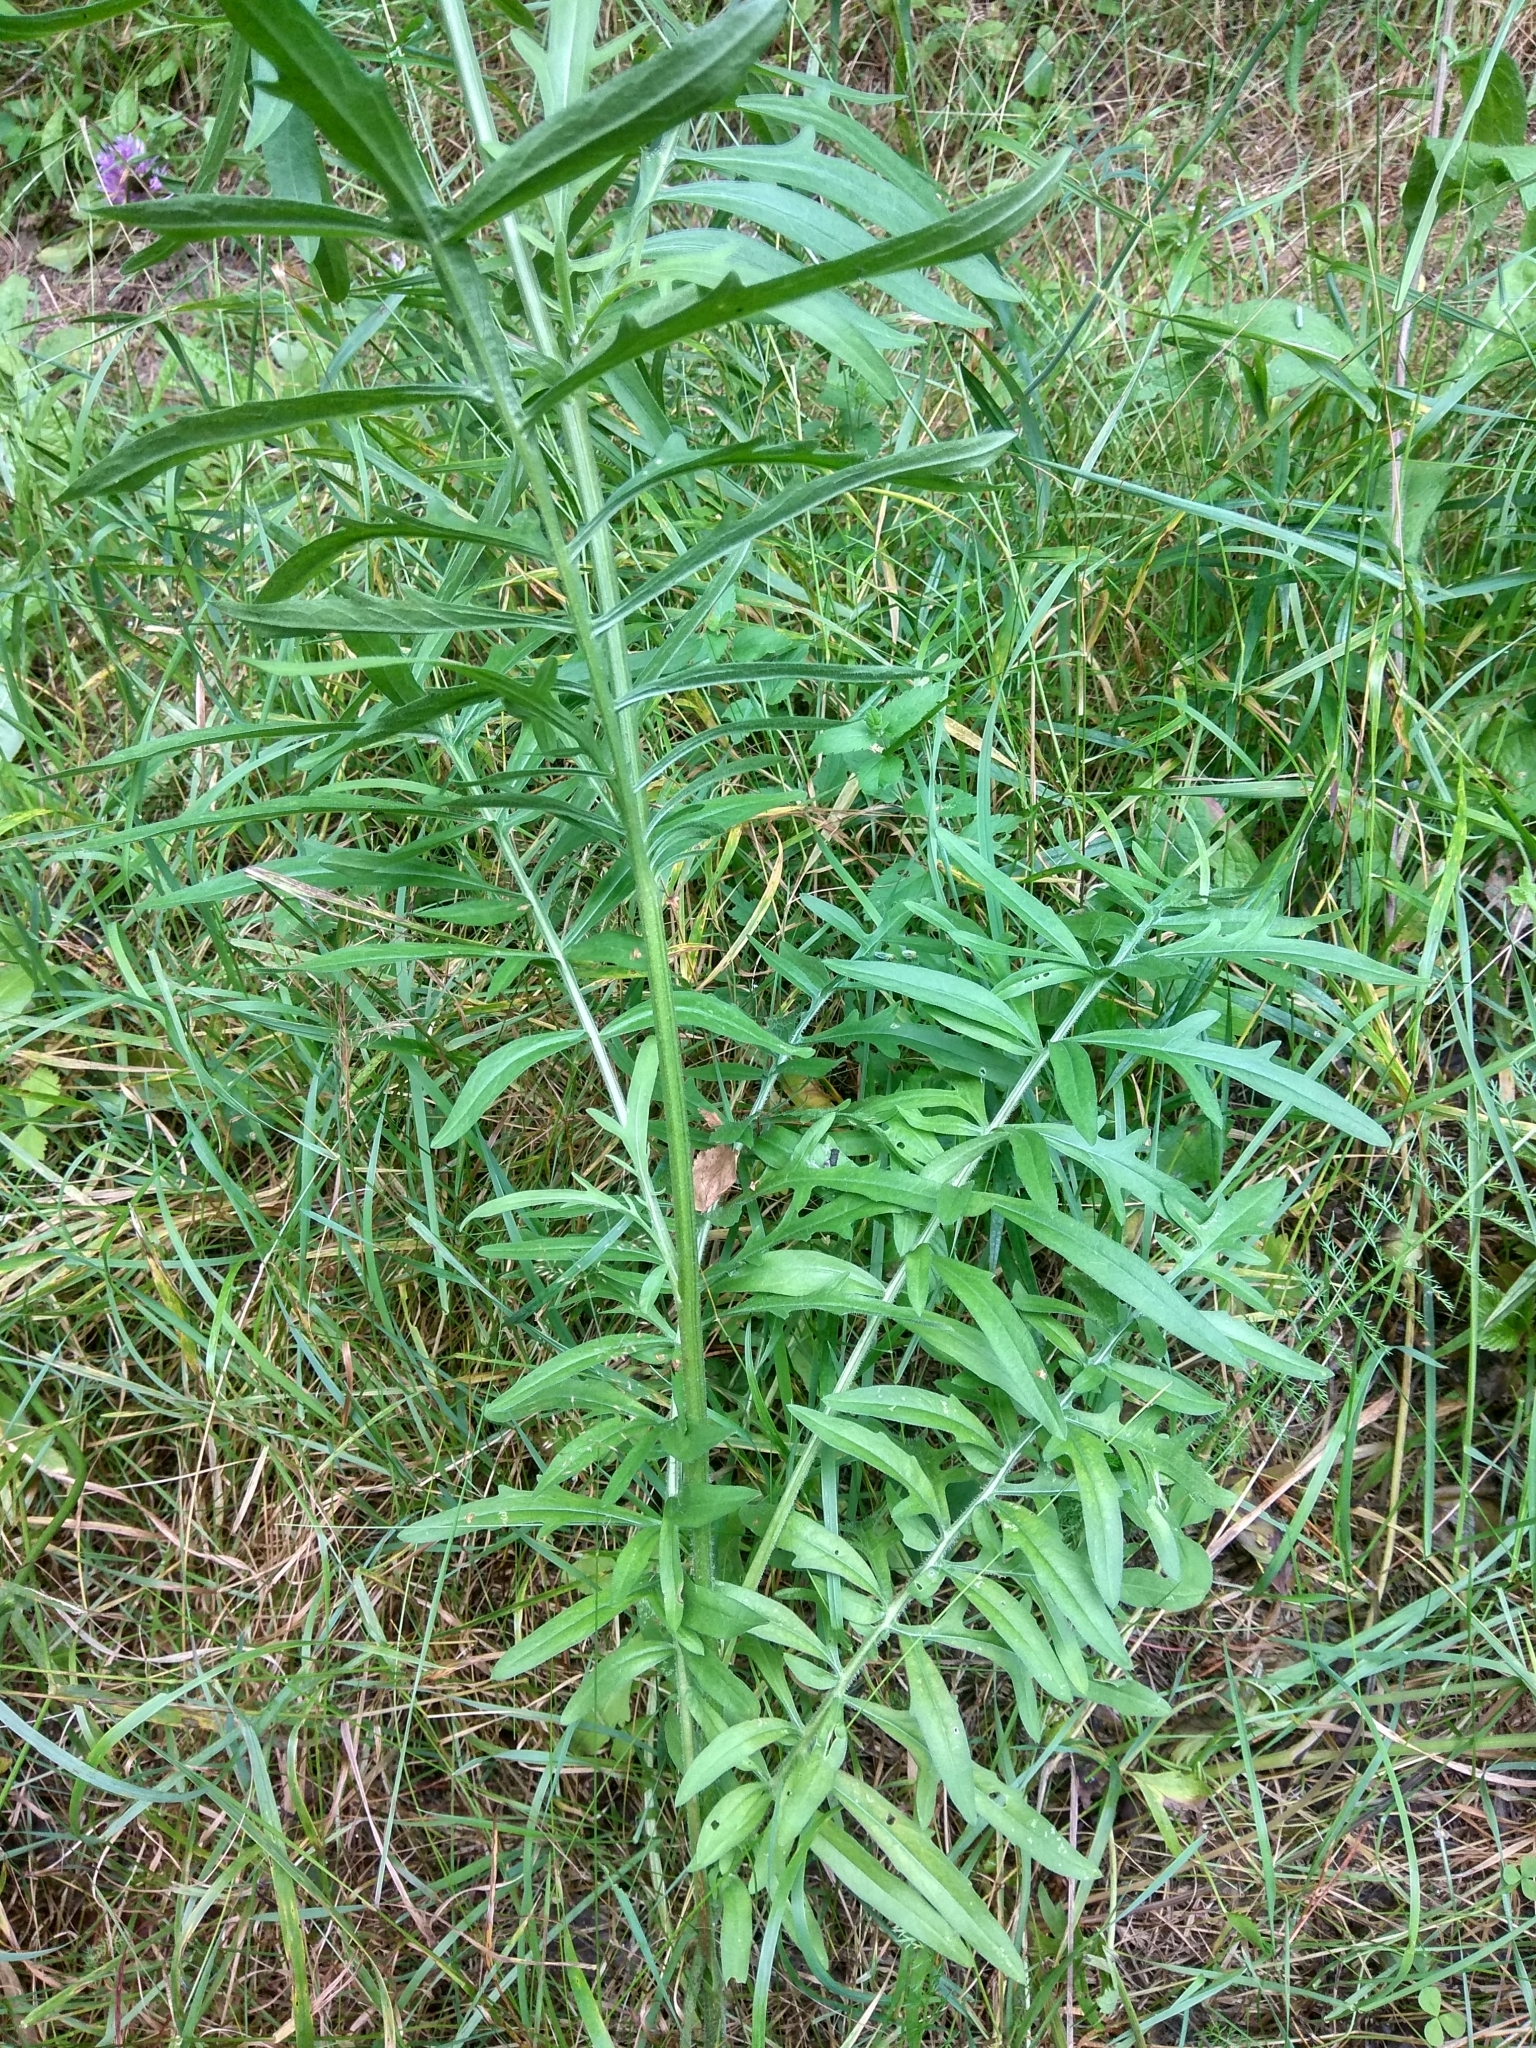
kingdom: Plantae
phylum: Tracheophyta
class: Magnoliopsida
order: Asterales
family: Asteraceae
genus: Centaurea
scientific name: Centaurea scabiosa
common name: Greater knapweed
